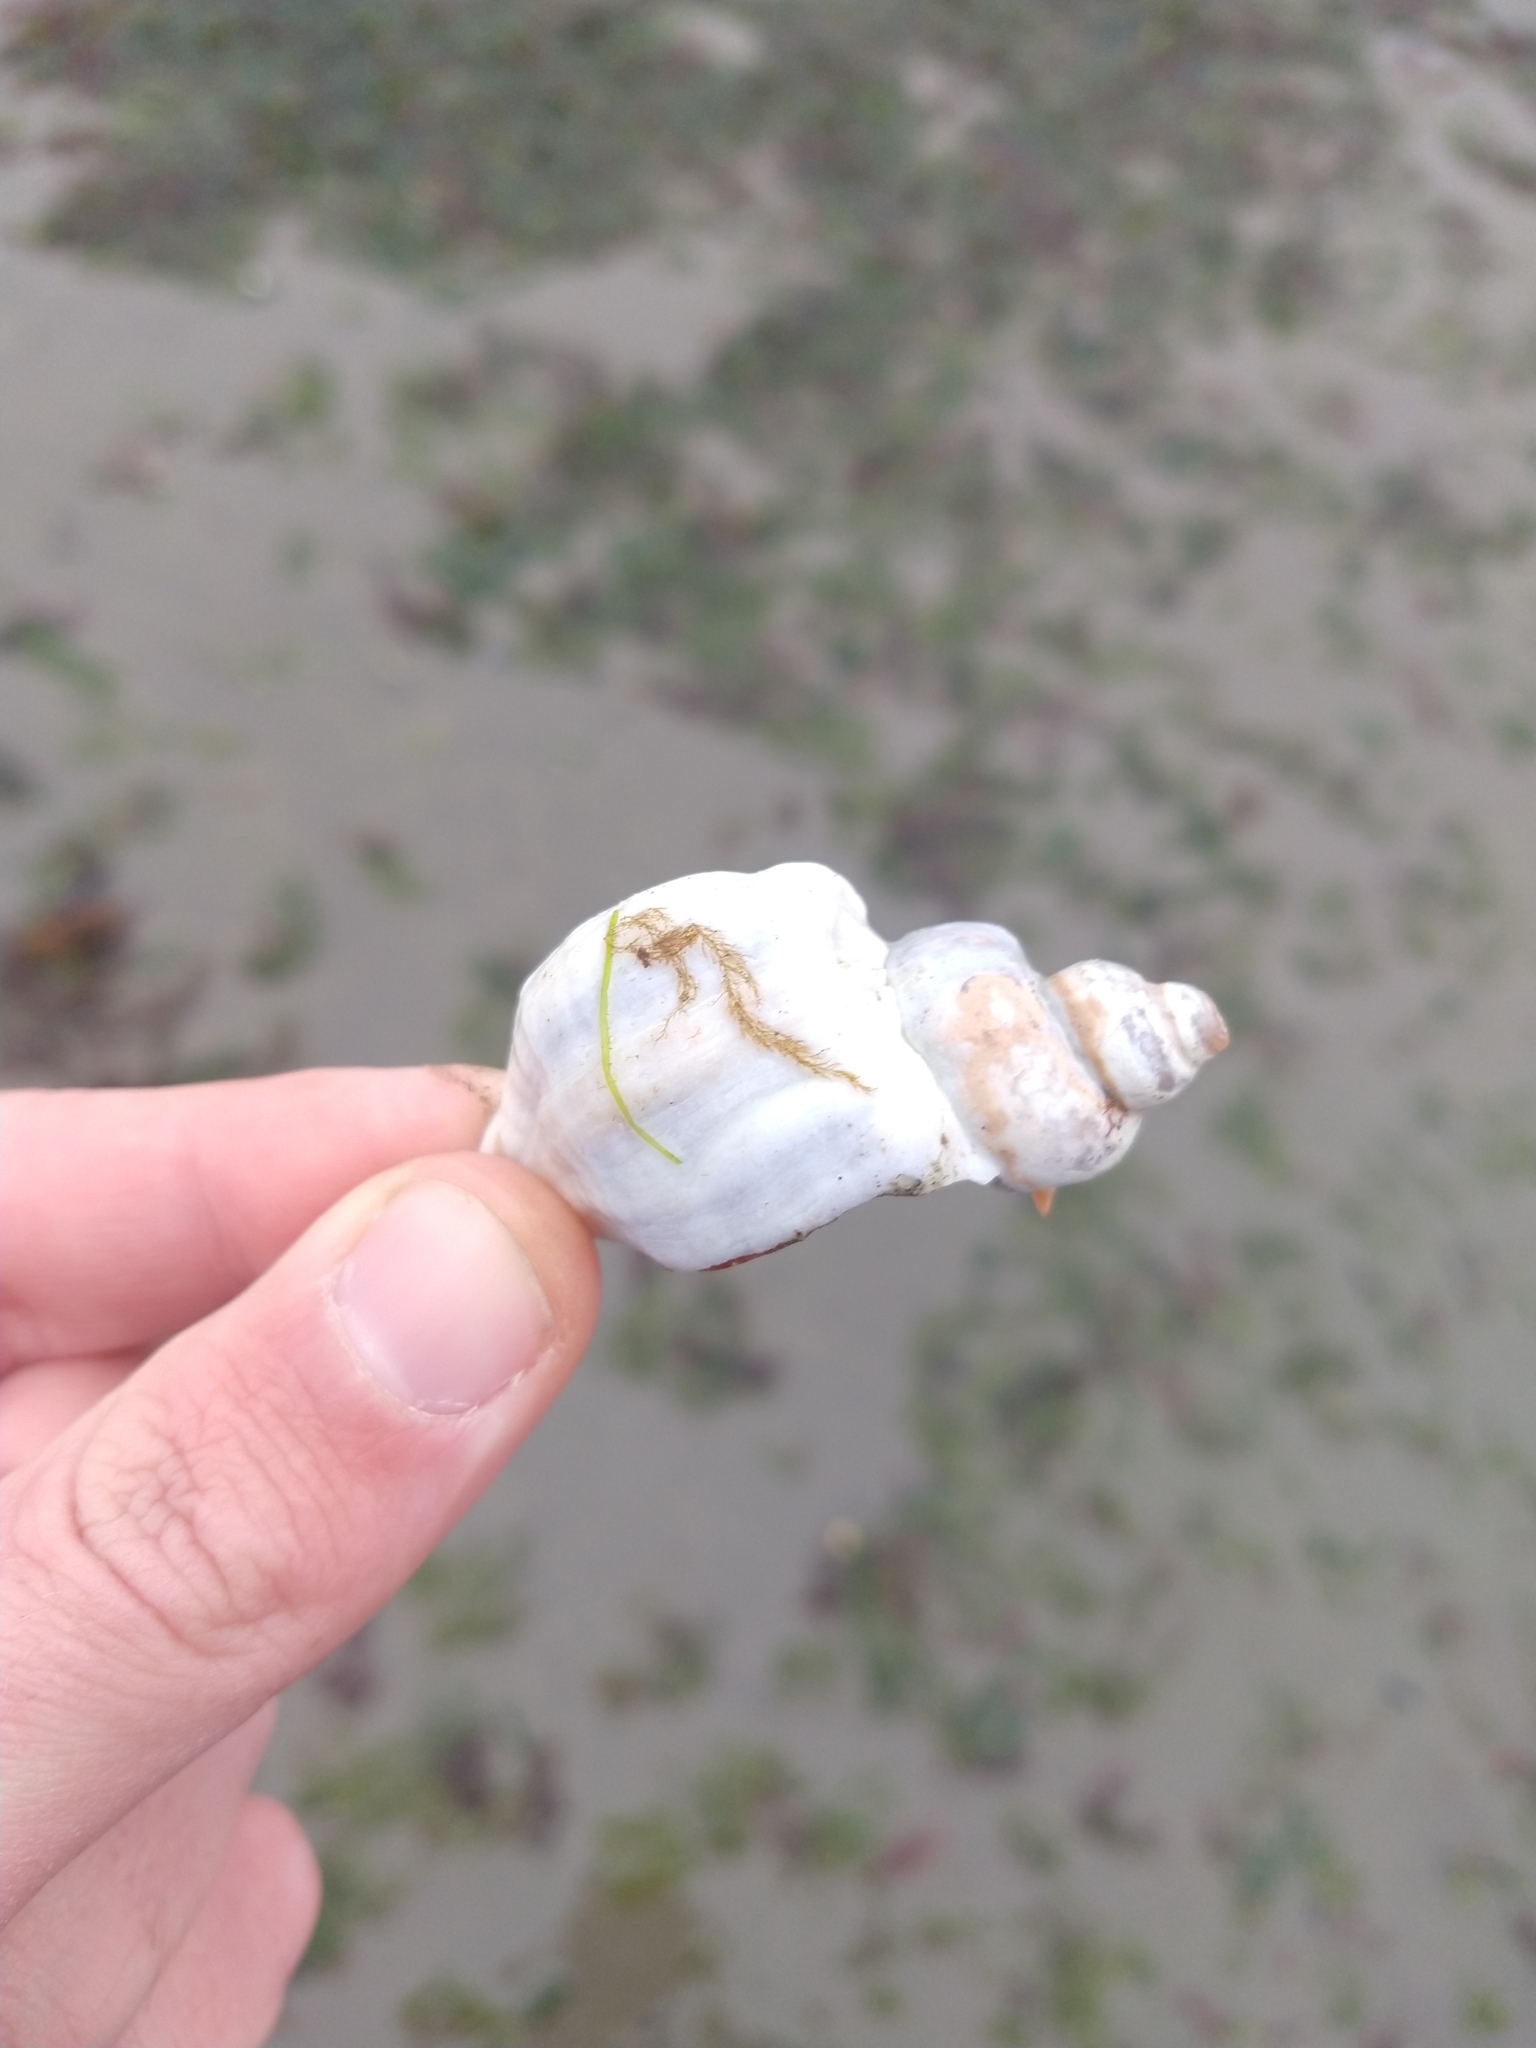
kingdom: Animalia
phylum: Mollusca
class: Gastropoda
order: Neogastropoda
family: Muricidae
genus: Trophon
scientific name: Trophon geversianus
